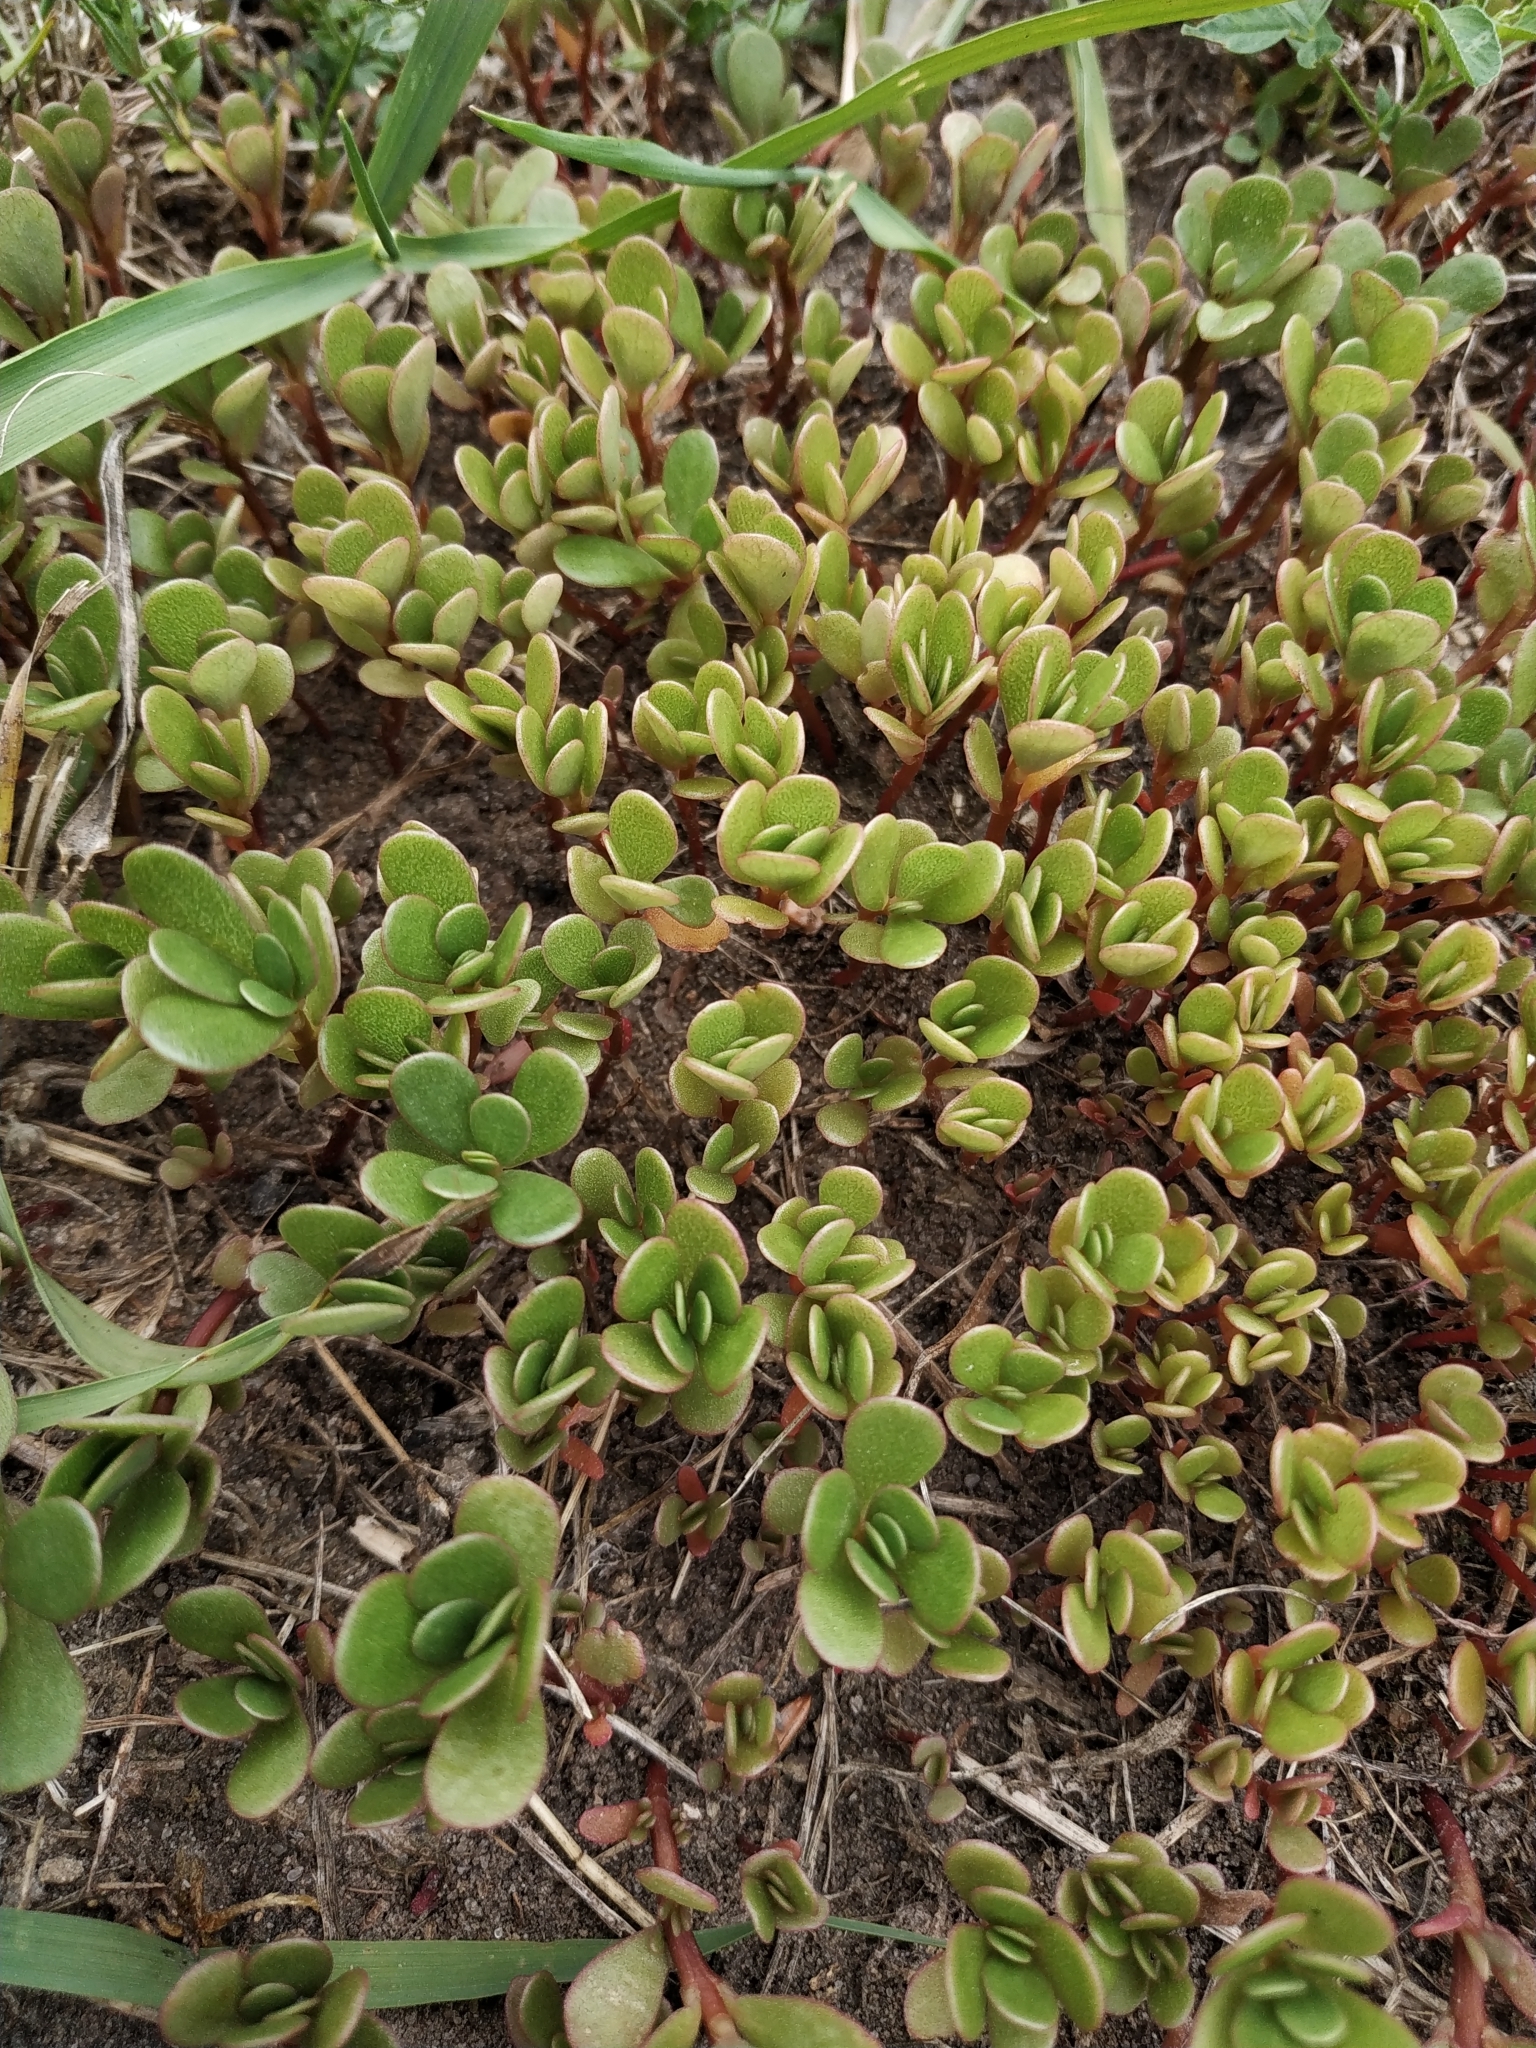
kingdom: Plantae
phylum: Tracheophyta
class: Magnoliopsida
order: Caryophyllales
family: Portulacaceae
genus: Portulaca
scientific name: Portulaca oleracea
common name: Common purslane
